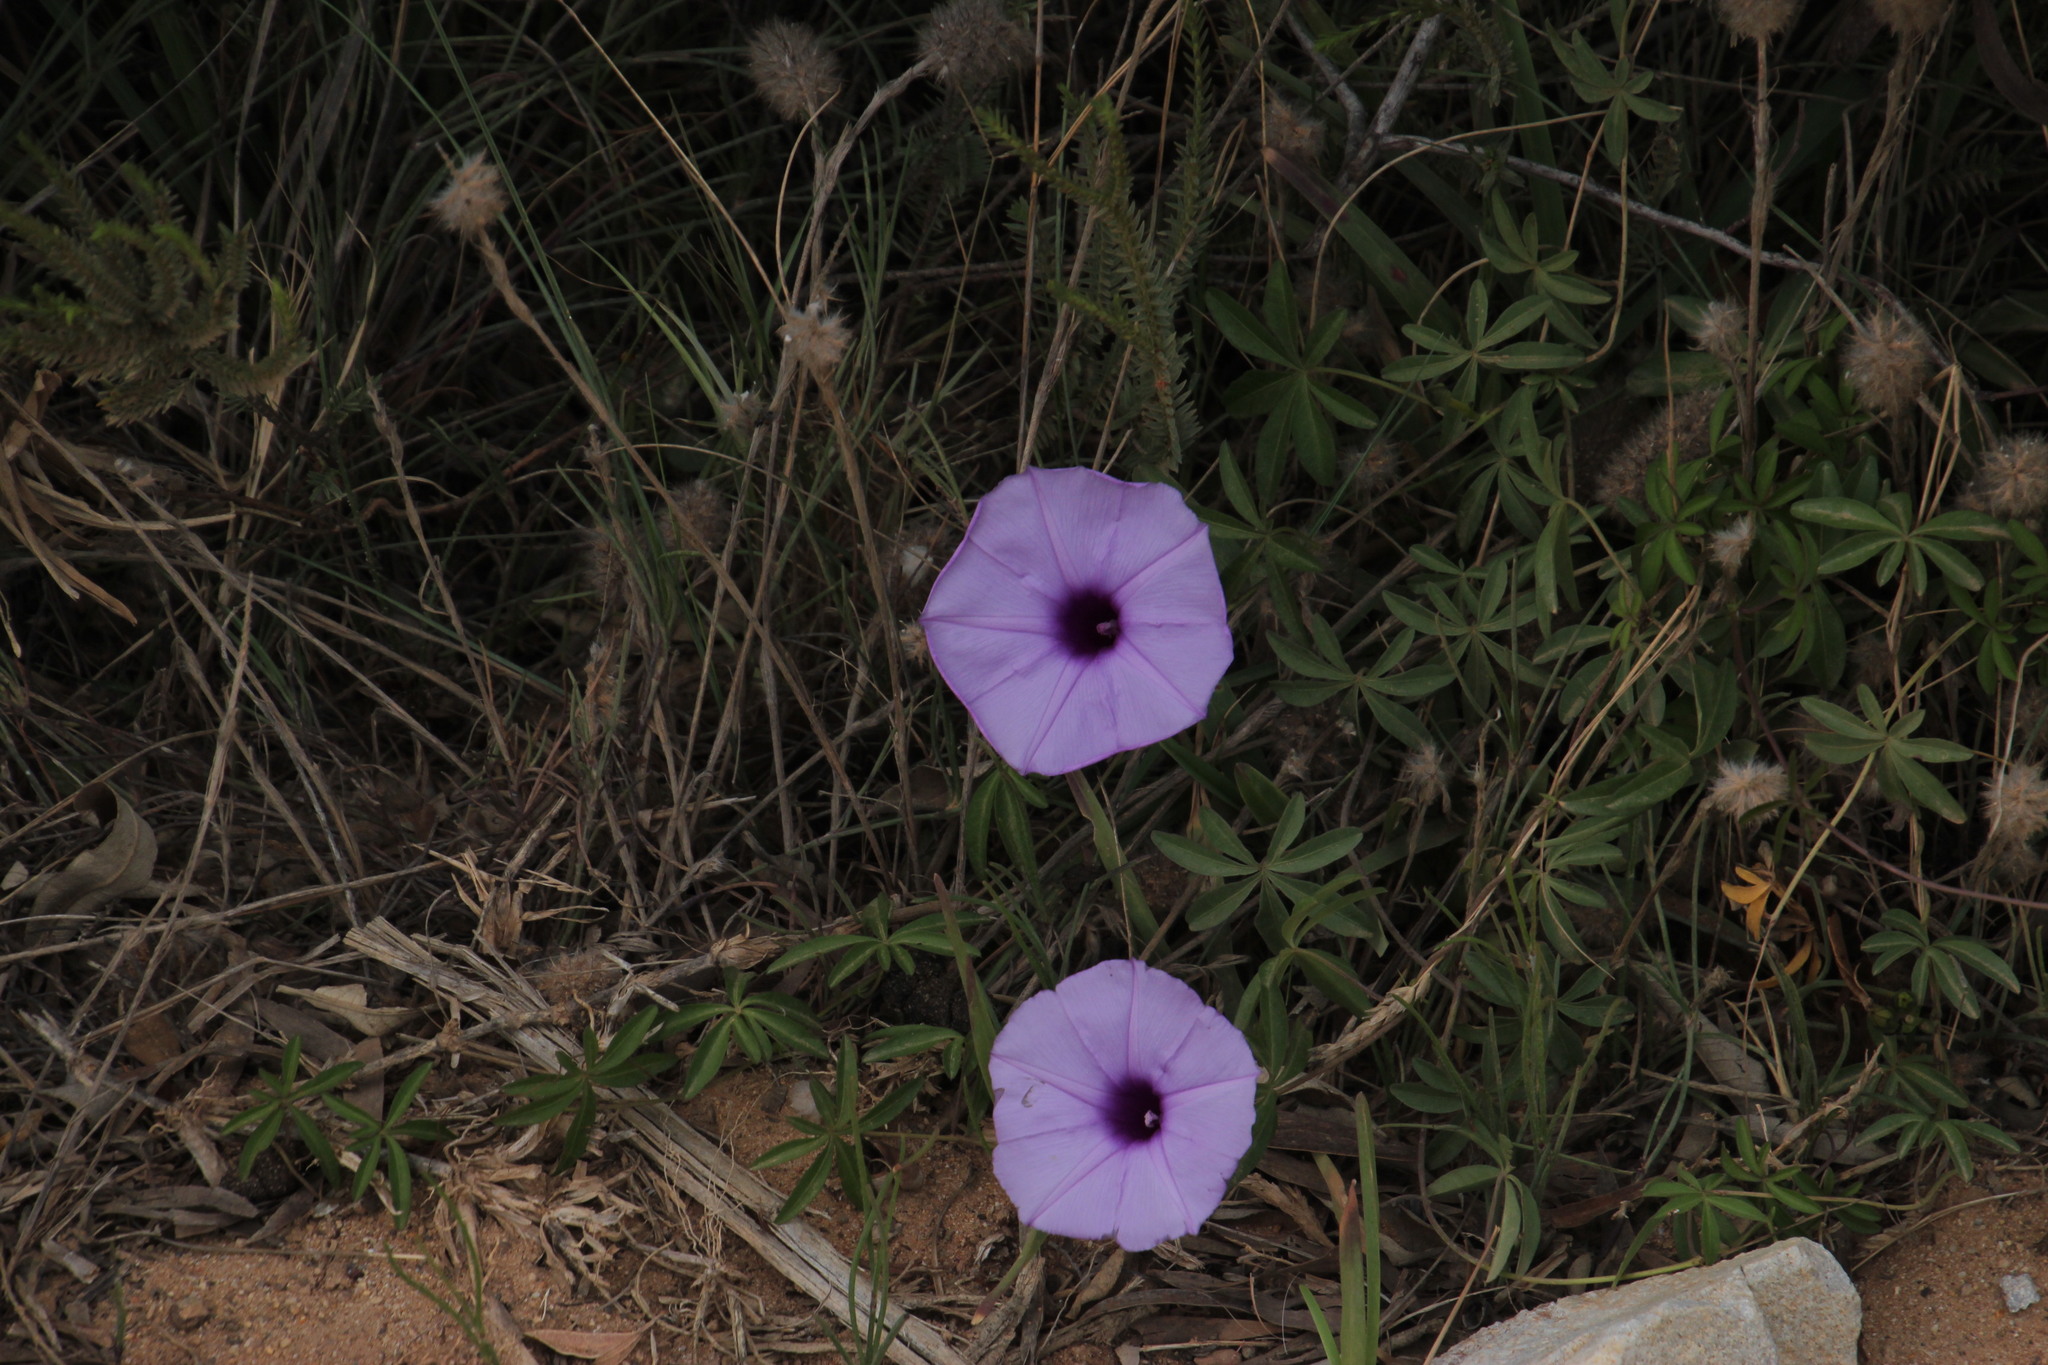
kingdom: Plantae
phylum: Tracheophyta
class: Magnoliopsida
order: Solanales
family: Convolvulaceae
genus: Ipomoea
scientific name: Ipomoea cairica
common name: Mile a minute vine
